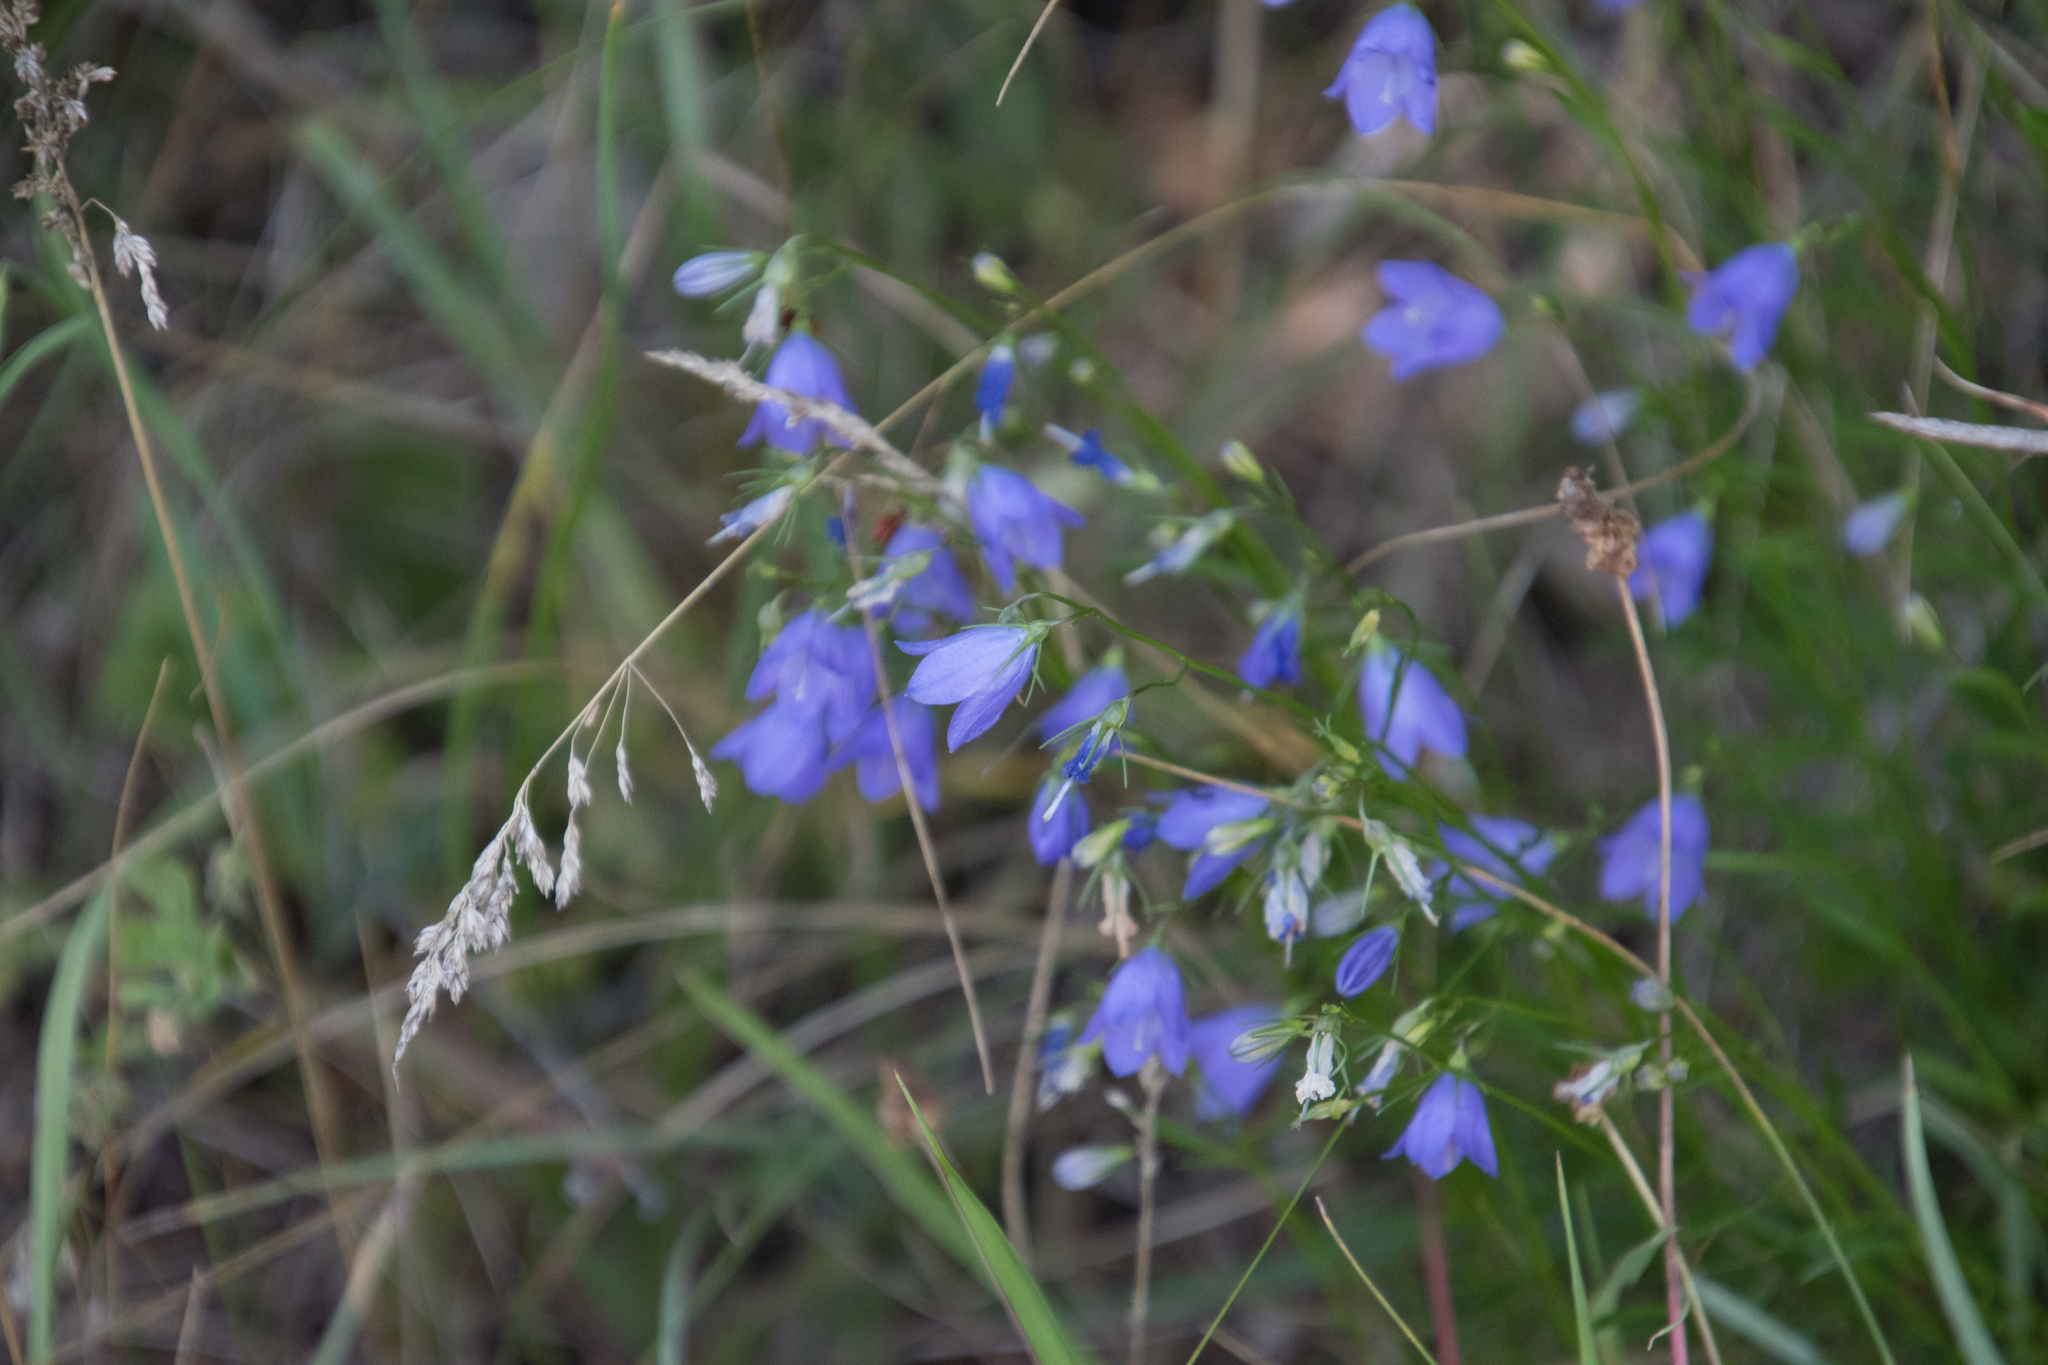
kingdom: Plantae
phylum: Tracheophyta
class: Magnoliopsida
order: Asterales
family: Campanulaceae
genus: Campanula
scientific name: Campanula rotundifolia
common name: Harebell
